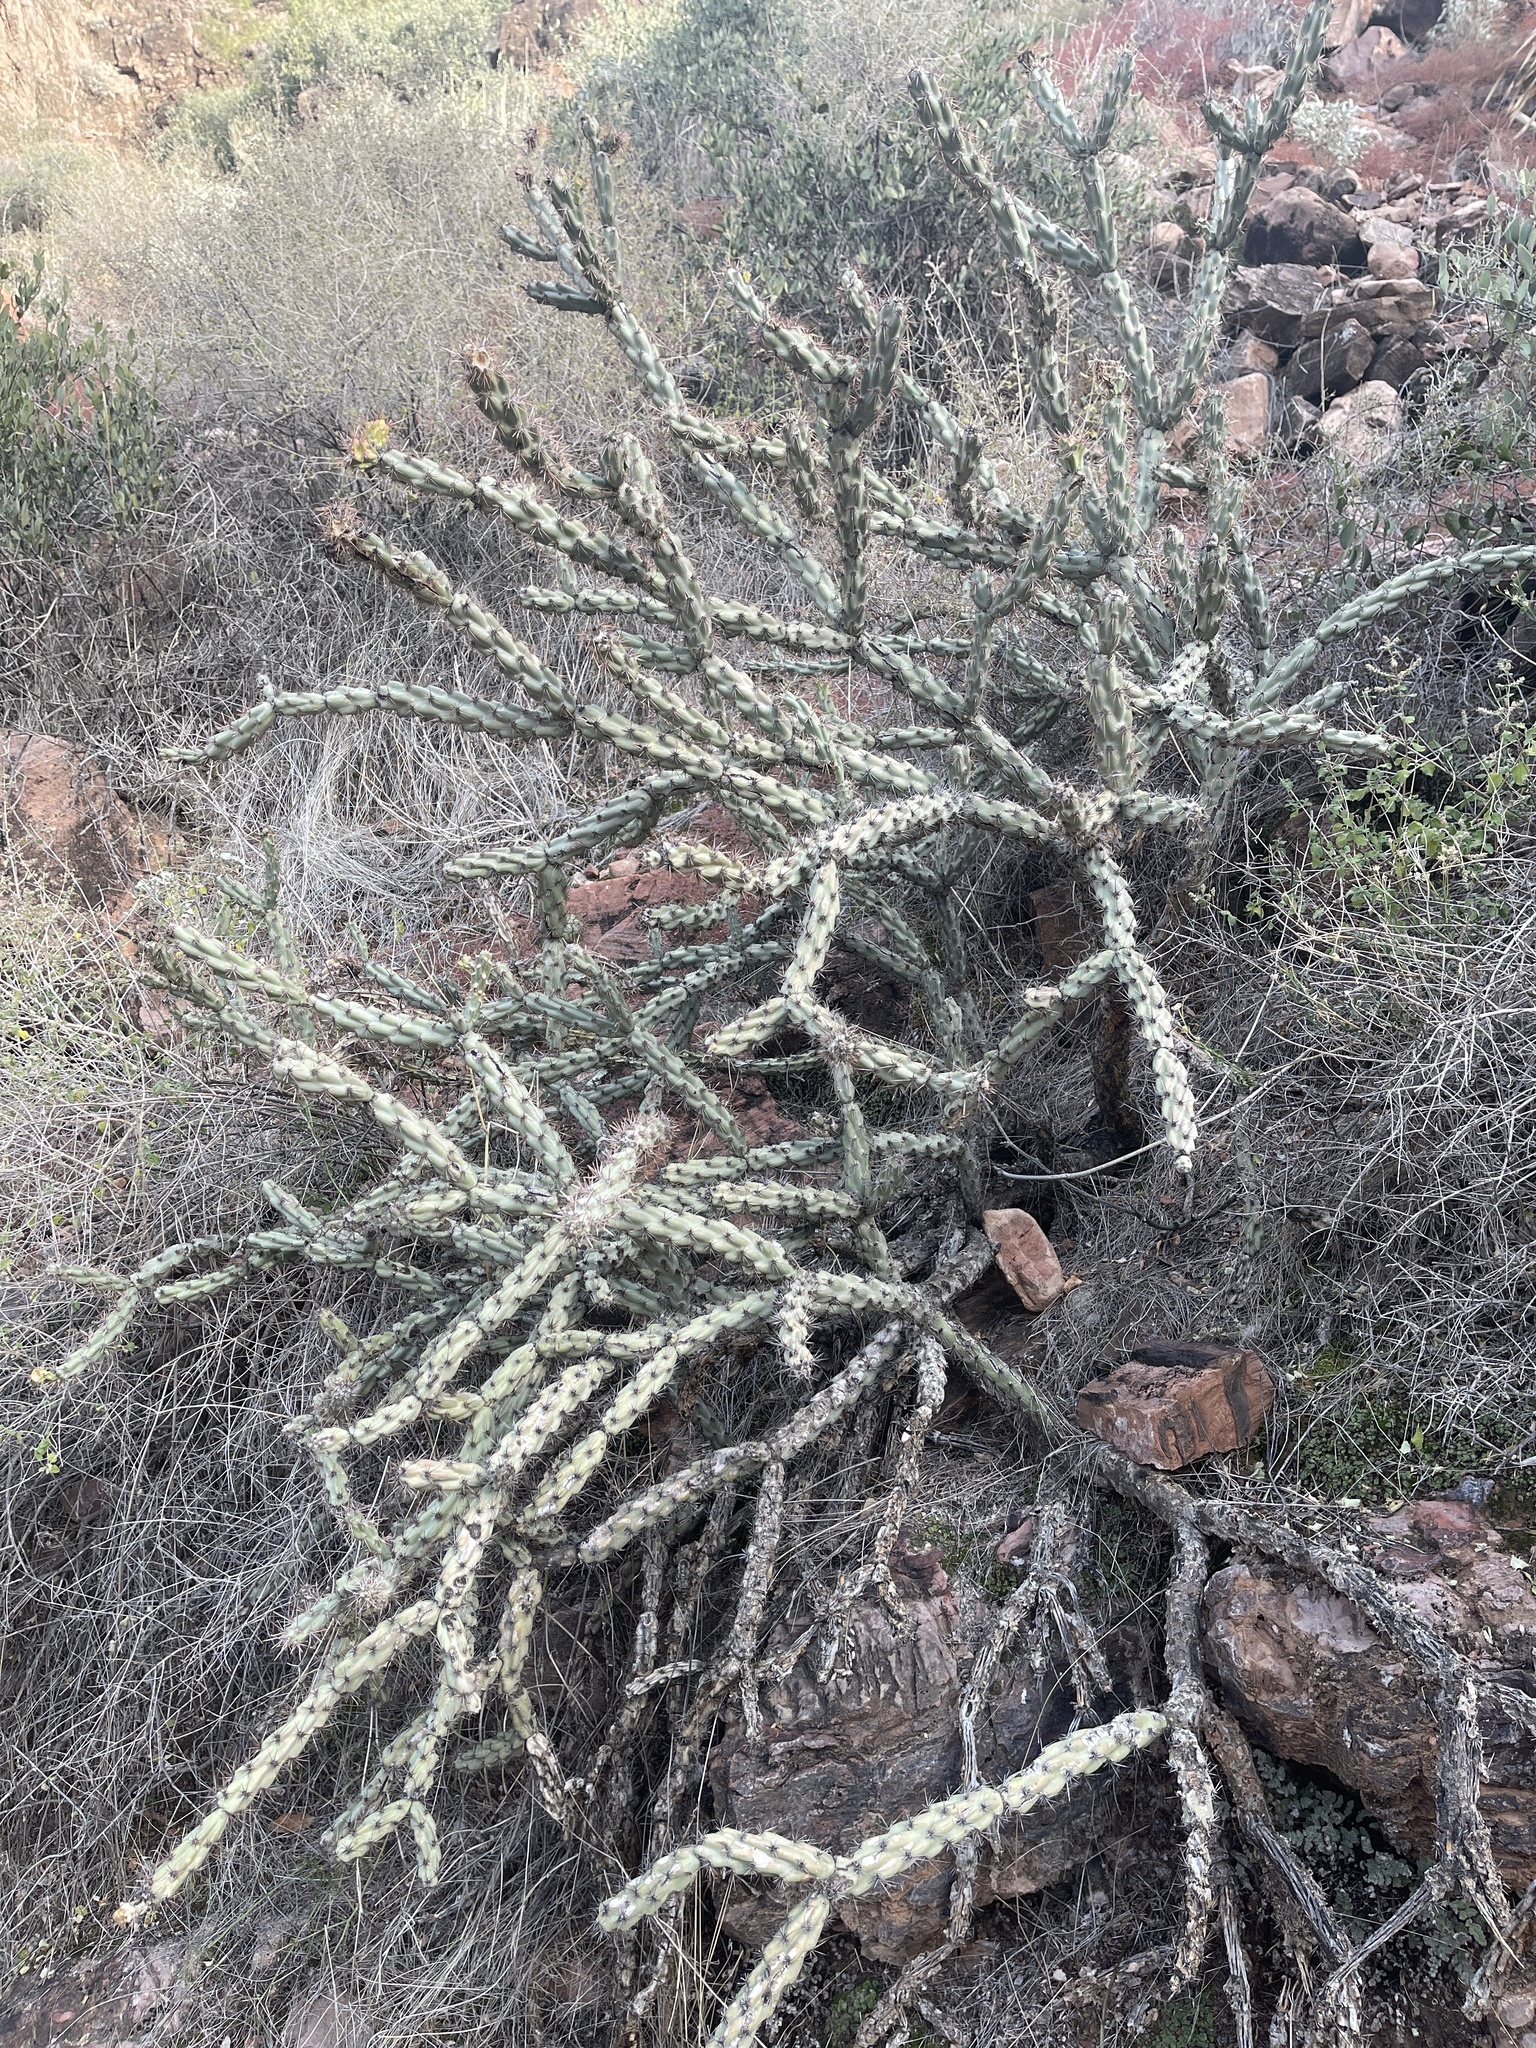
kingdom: Plantae
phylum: Tracheophyta
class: Magnoliopsida
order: Caryophyllales
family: Cactaceae
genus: Cylindropuntia
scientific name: Cylindropuntia acanthocarpa
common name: Buckhorn cholla
